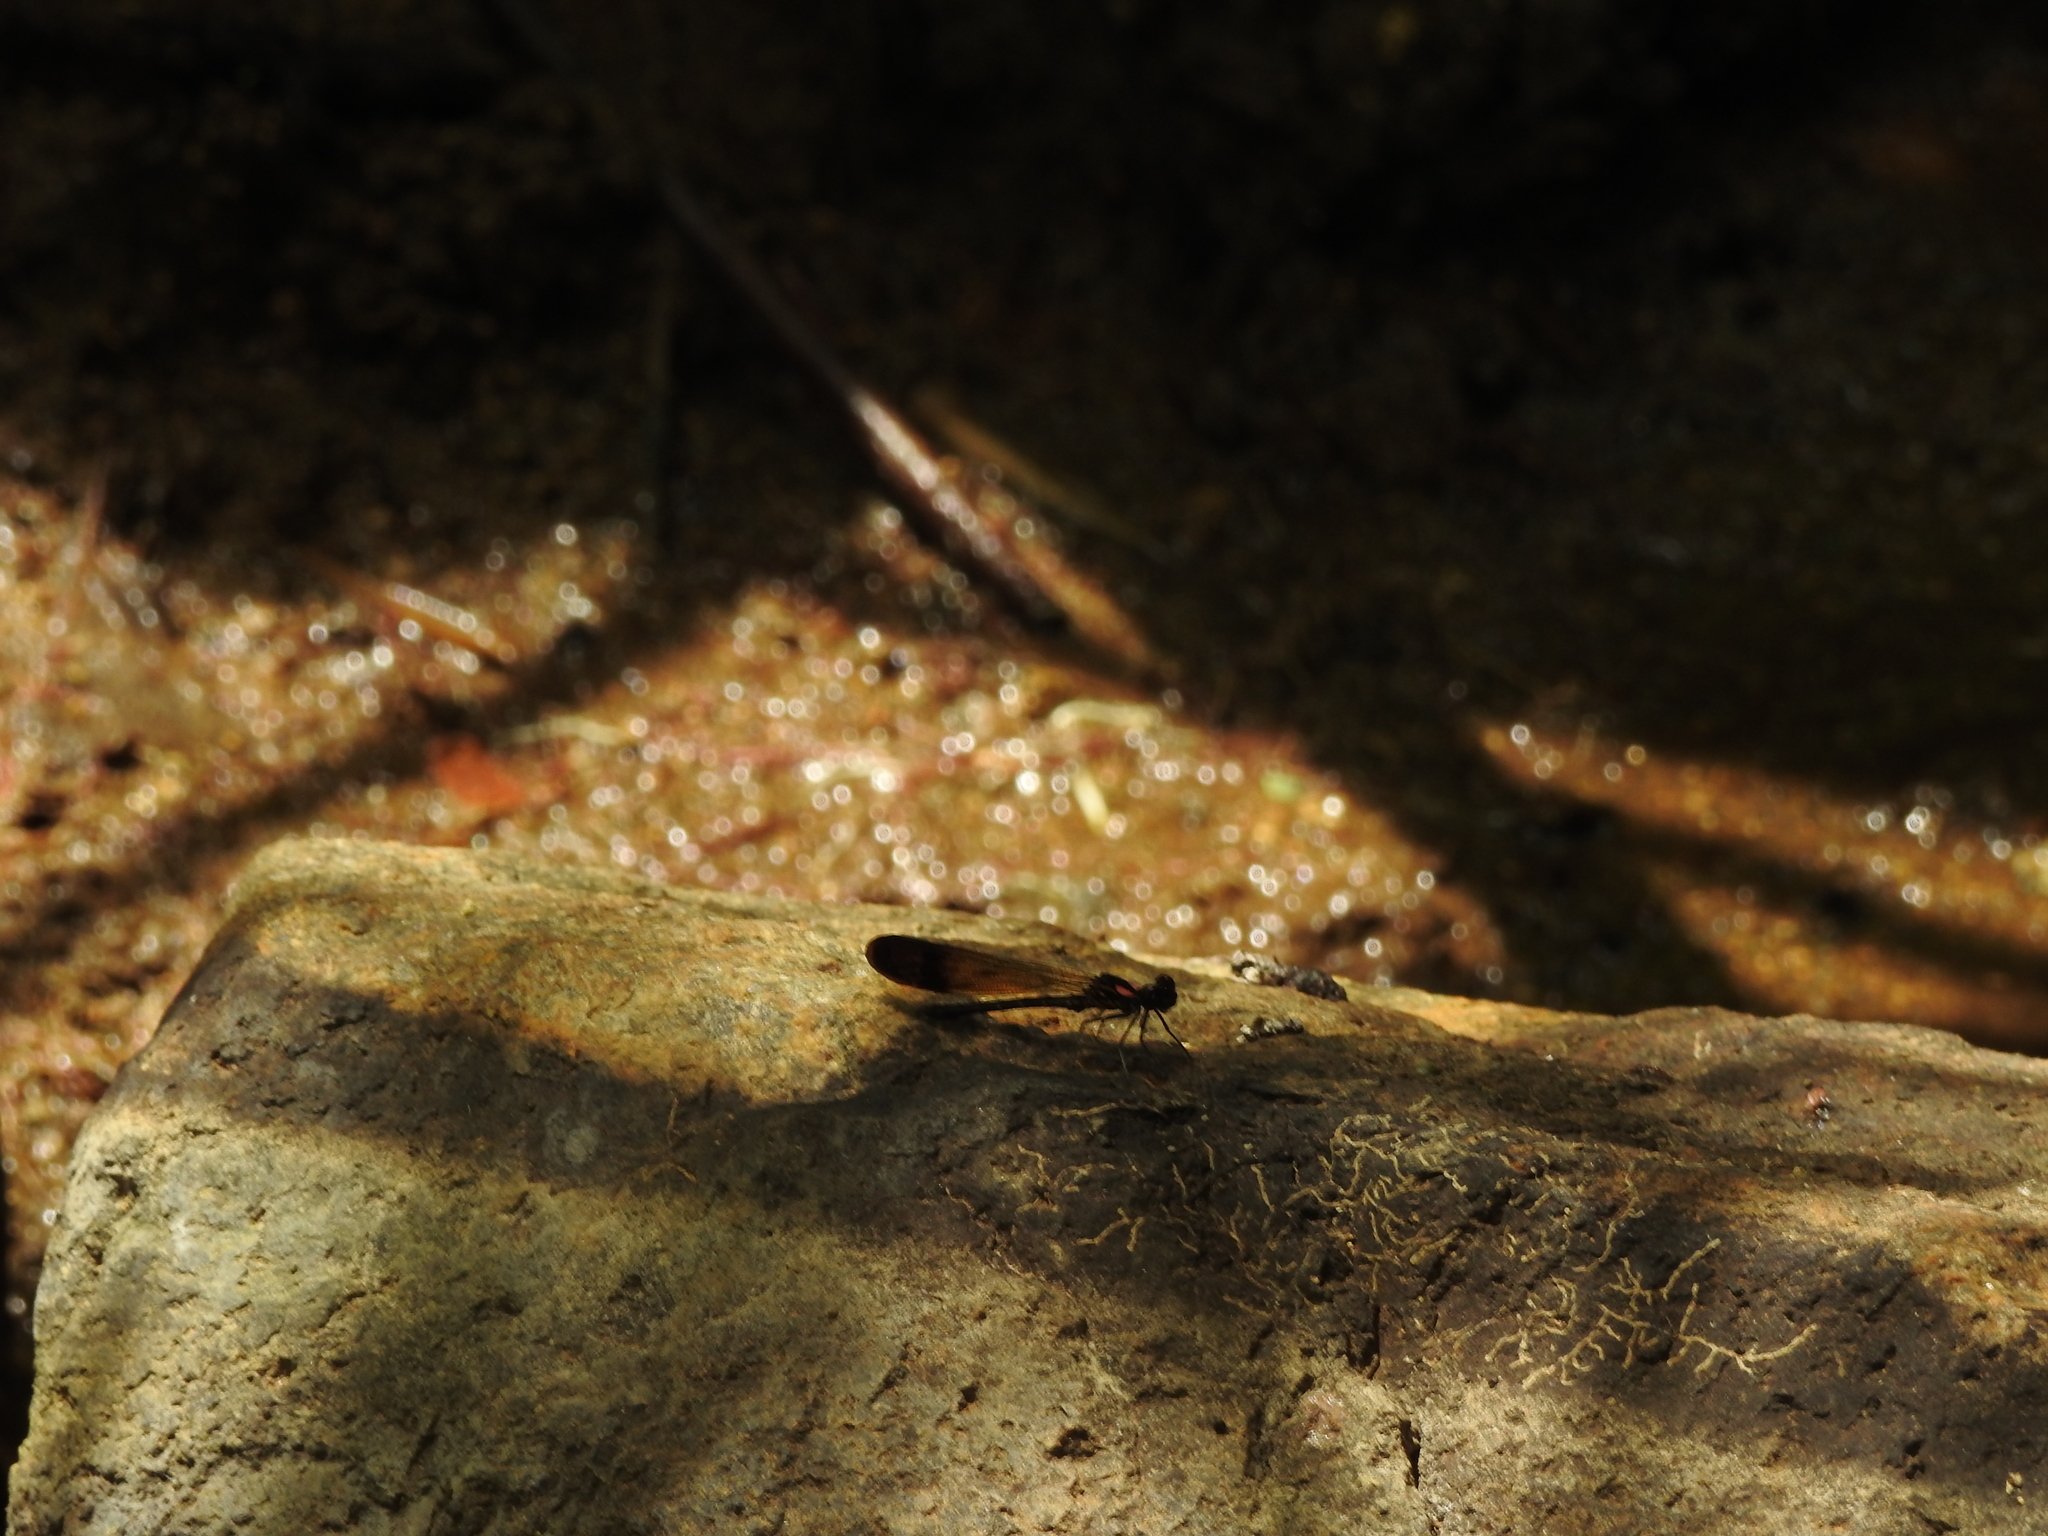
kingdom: Animalia
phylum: Arthropoda
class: Insecta
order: Odonata
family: Chlorocyphidae
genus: Heliocypha
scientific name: Heliocypha bisignata
